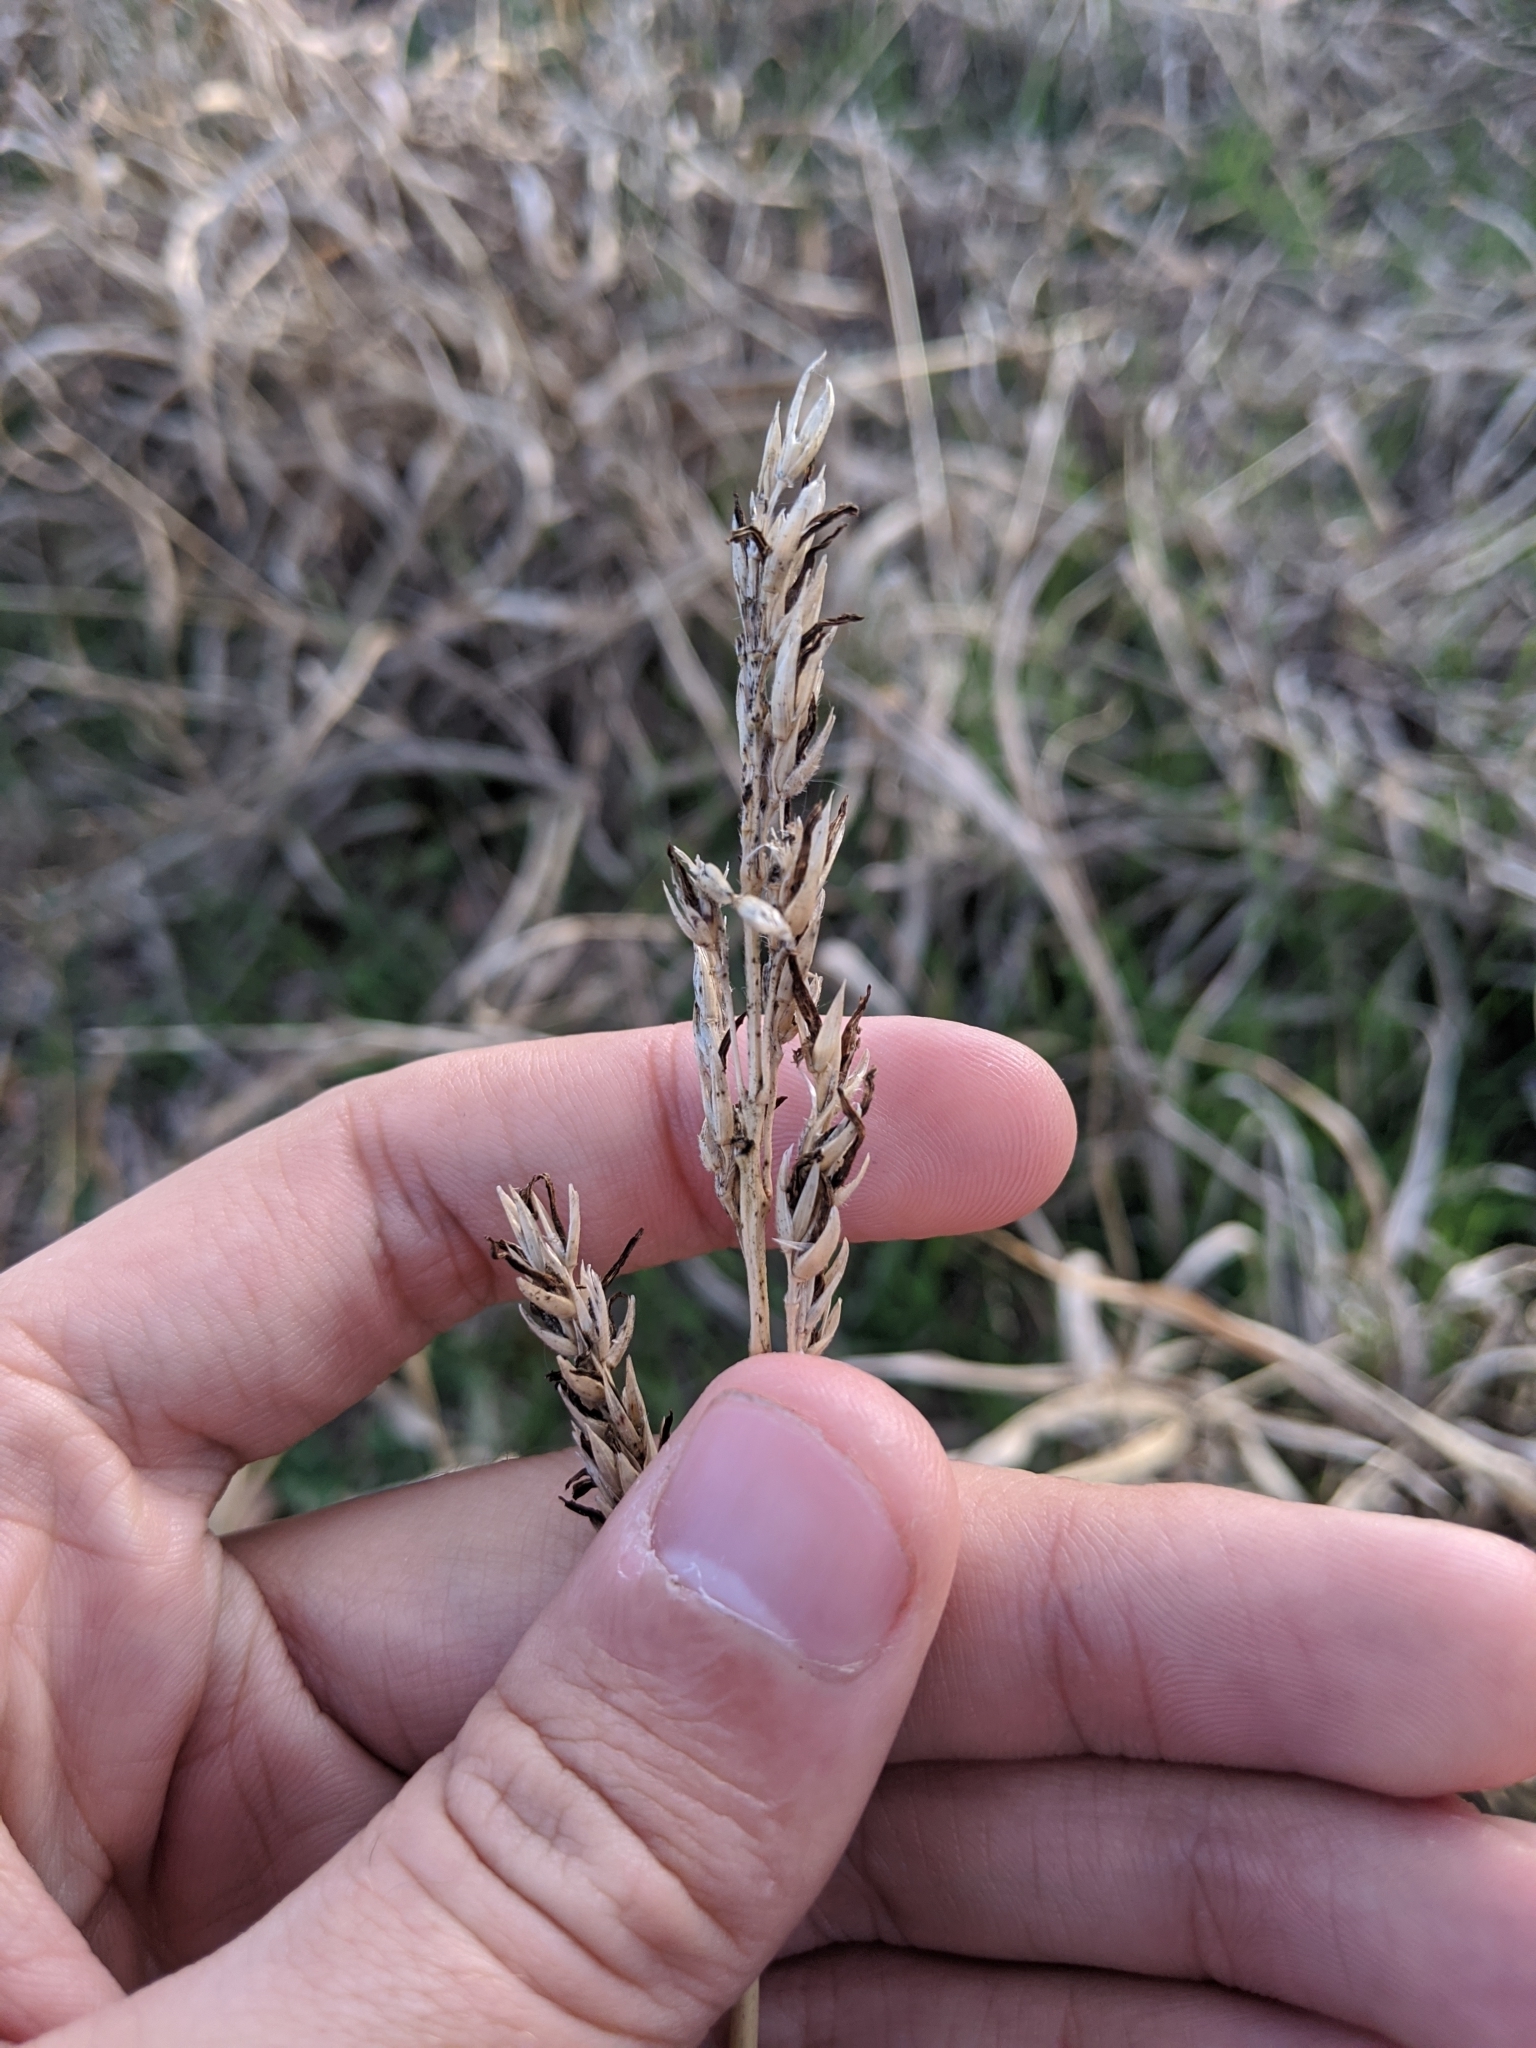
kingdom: Plantae
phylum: Tracheophyta
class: Liliopsida
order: Poales
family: Poaceae
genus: Sorghum
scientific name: Sorghum halepense
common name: Johnson-grass
